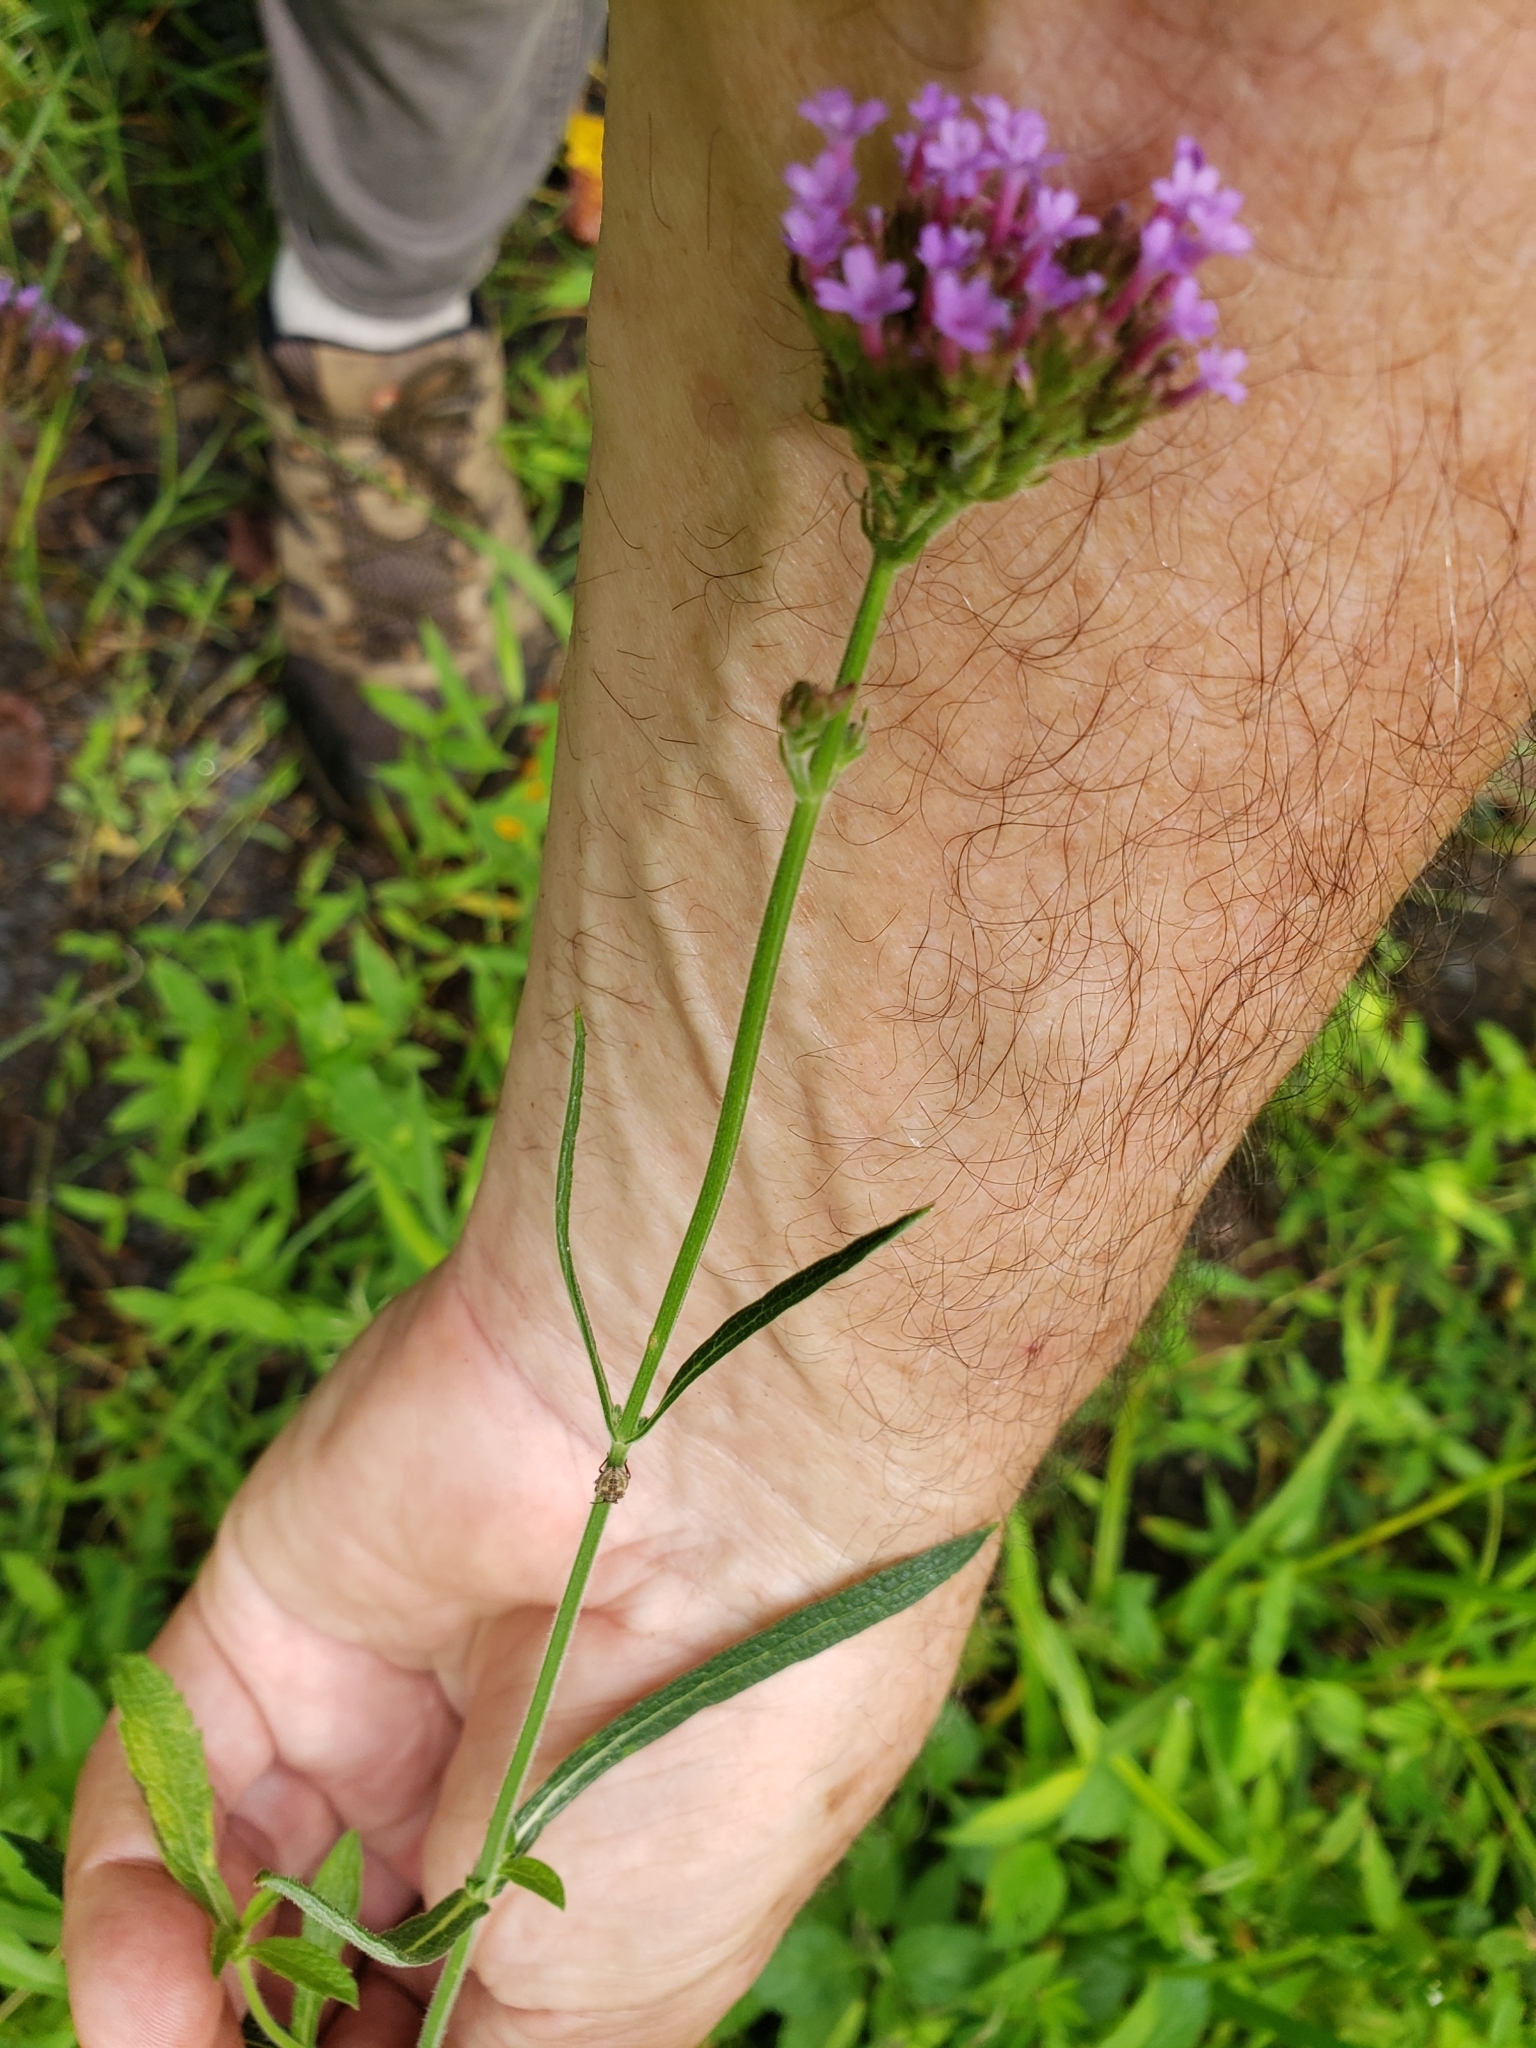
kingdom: Plantae
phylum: Tracheophyta
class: Magnoliopsida
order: Lamiales
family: Verbenaceae
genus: Verbena
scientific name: Verbena bonariensis
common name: Purpletop vervain
